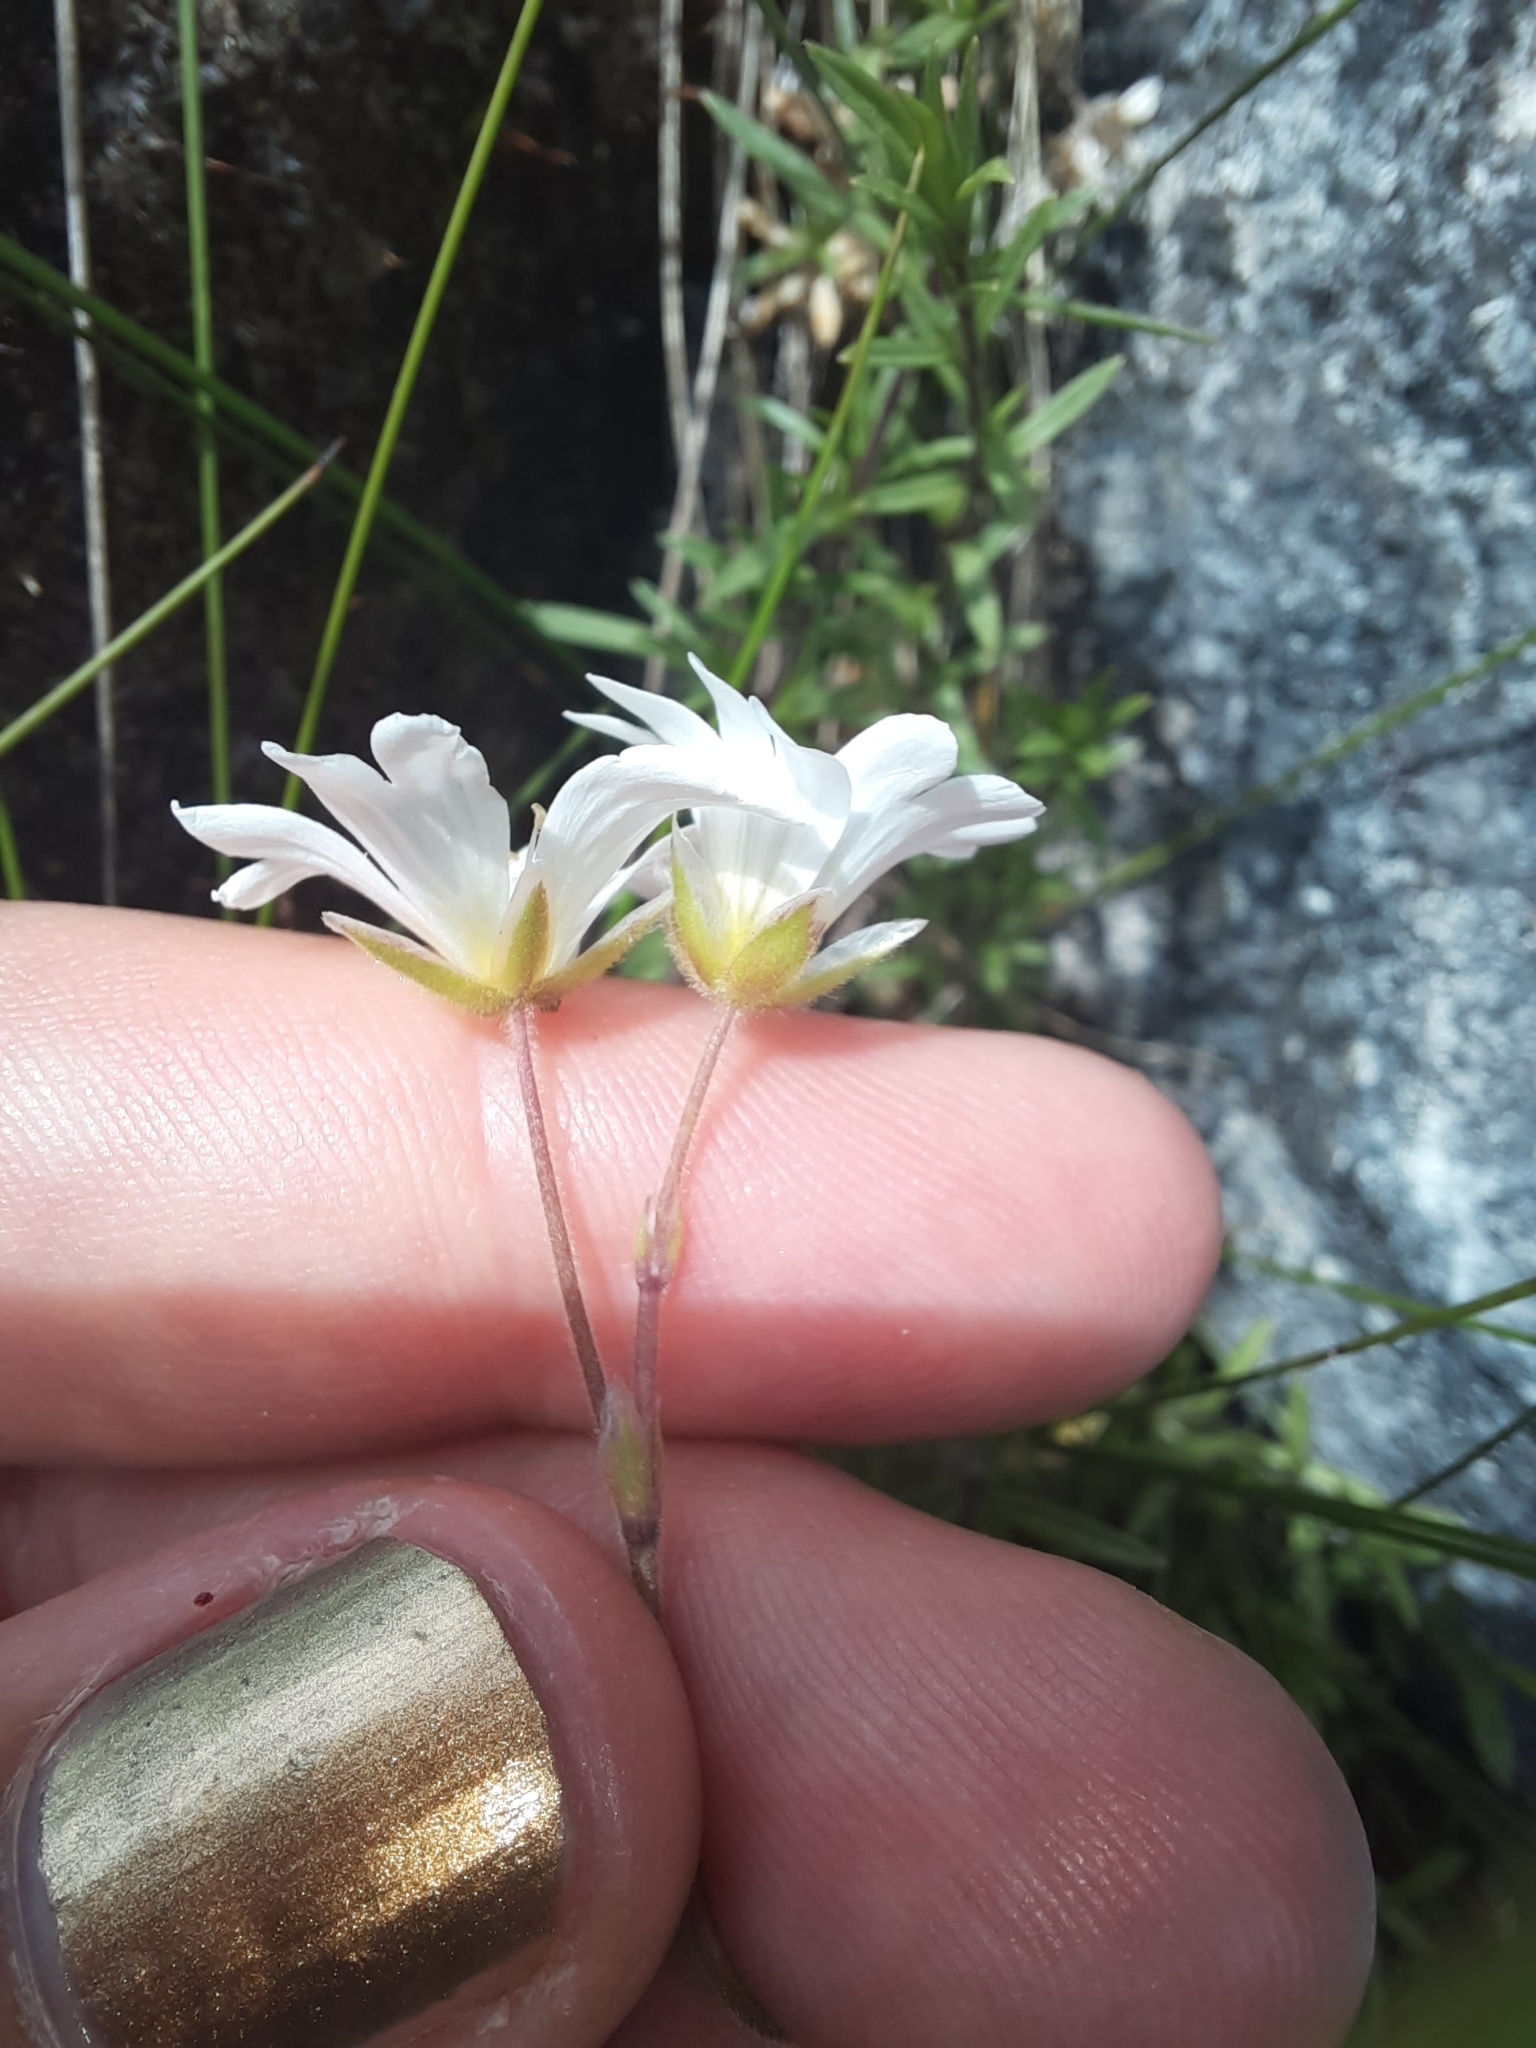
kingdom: Plantae
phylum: Tracheophyta
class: Magnoliopsida
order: Caryophyllales
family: Caryophyllaceae
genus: Cerastium
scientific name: Cerastium arvense
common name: Field mouse-ear
